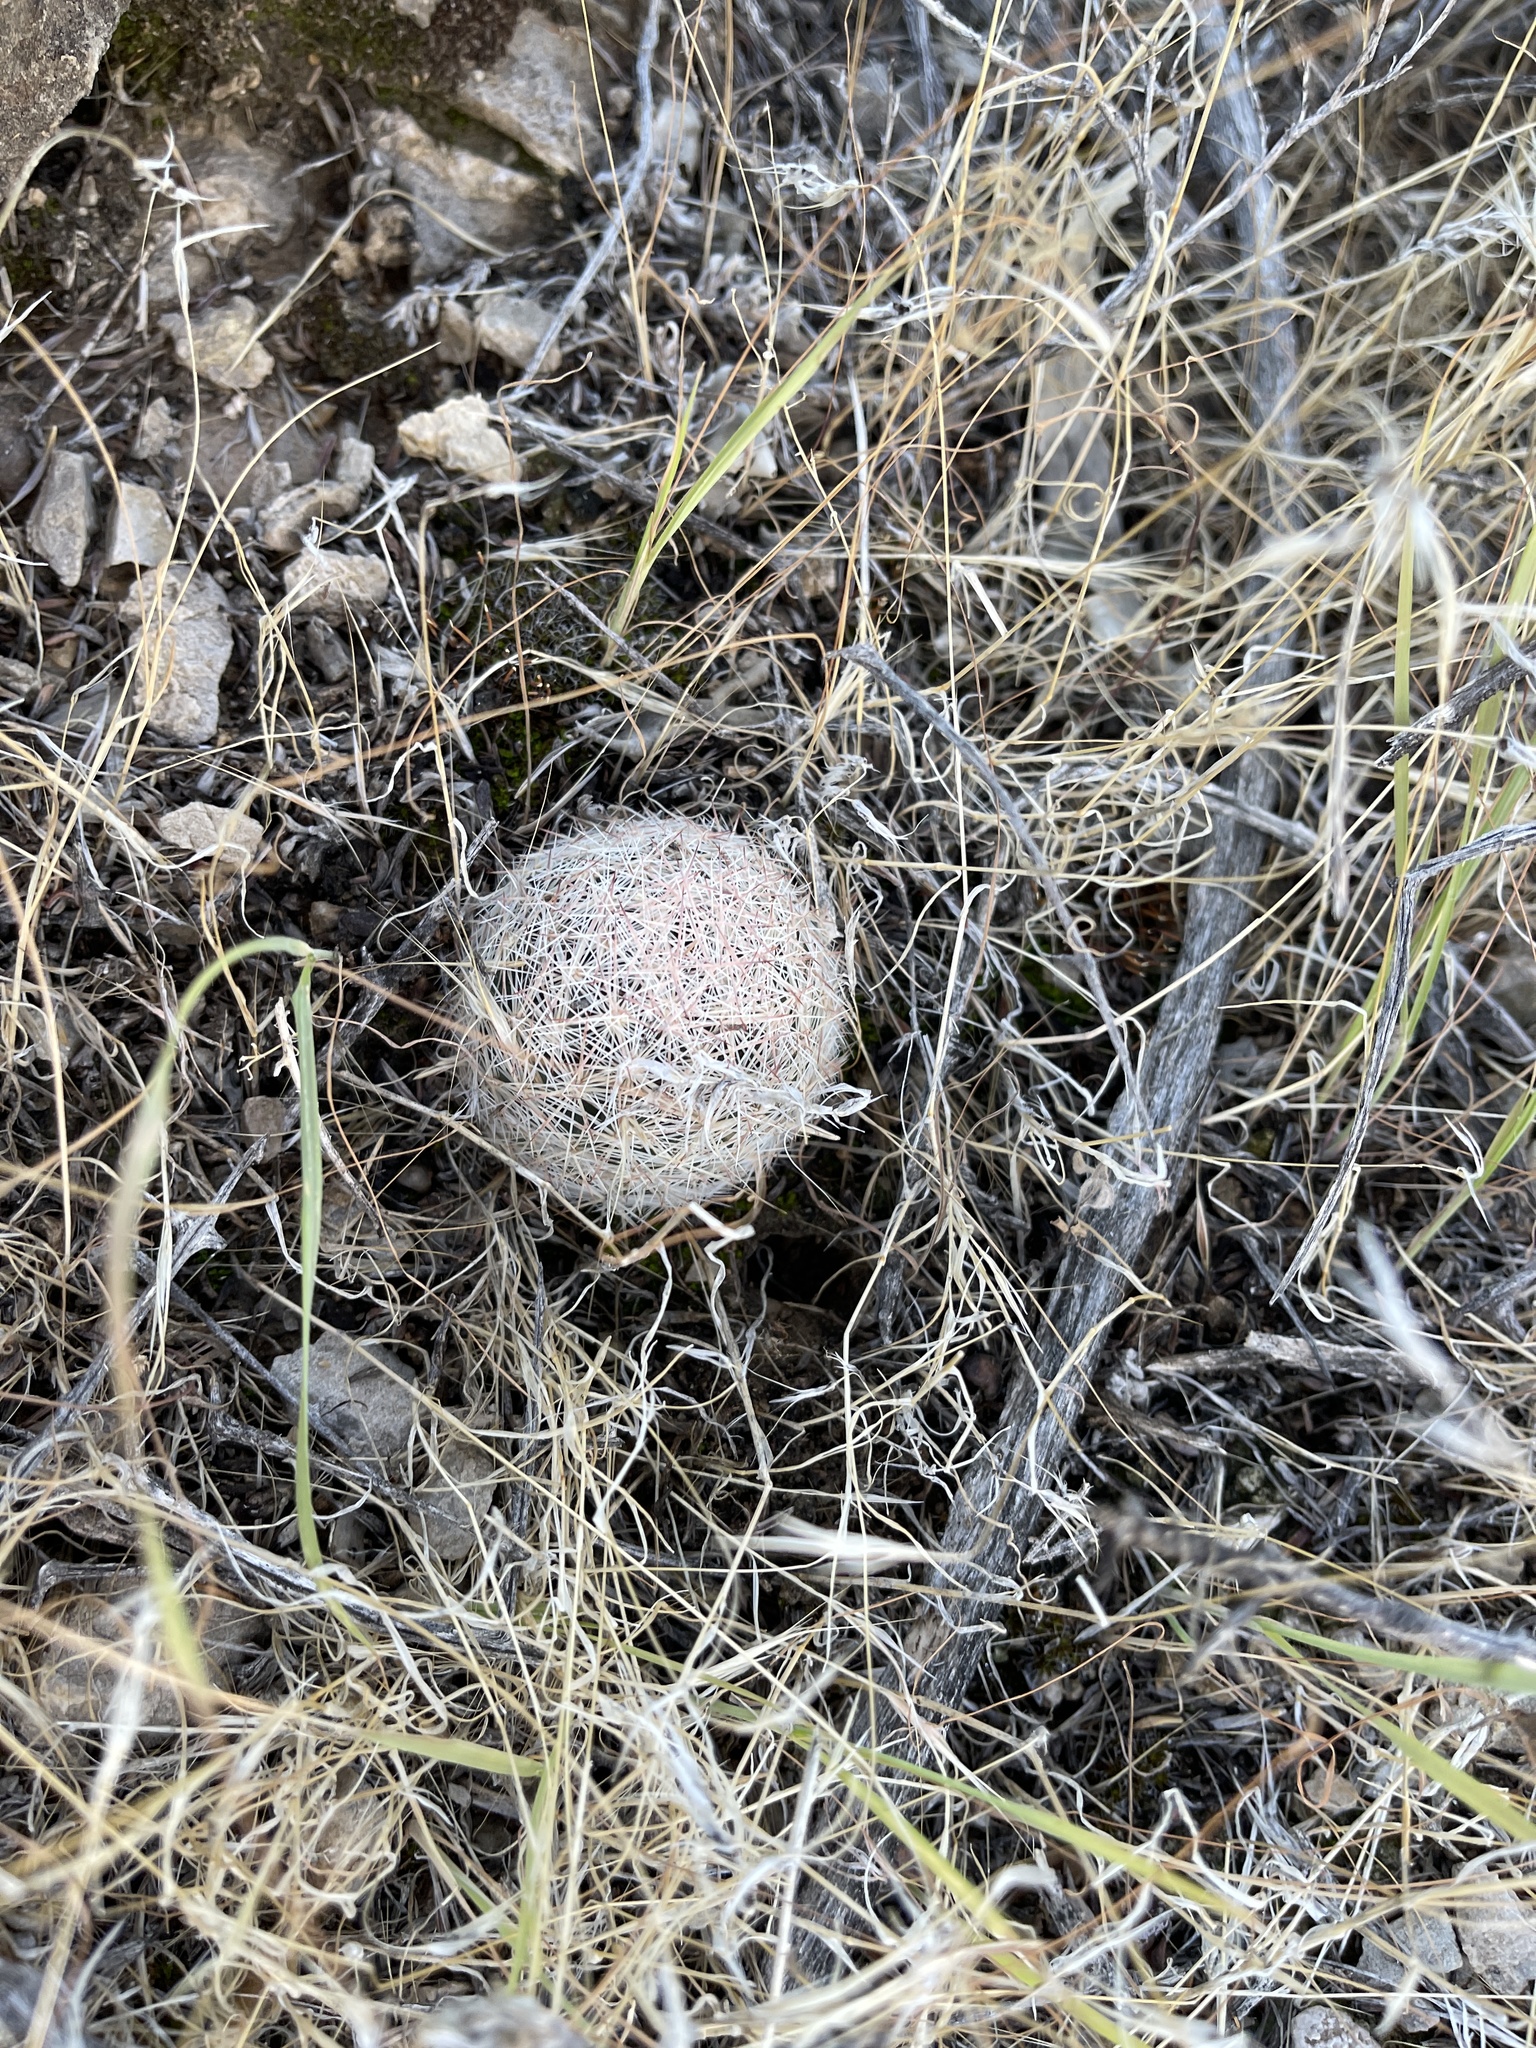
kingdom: Plantae
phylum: Tracheophyta
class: Magnoliopsida
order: Caryophyllales
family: Cactaceae
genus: Pelecyphora
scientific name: Pelecyphora vivipara
